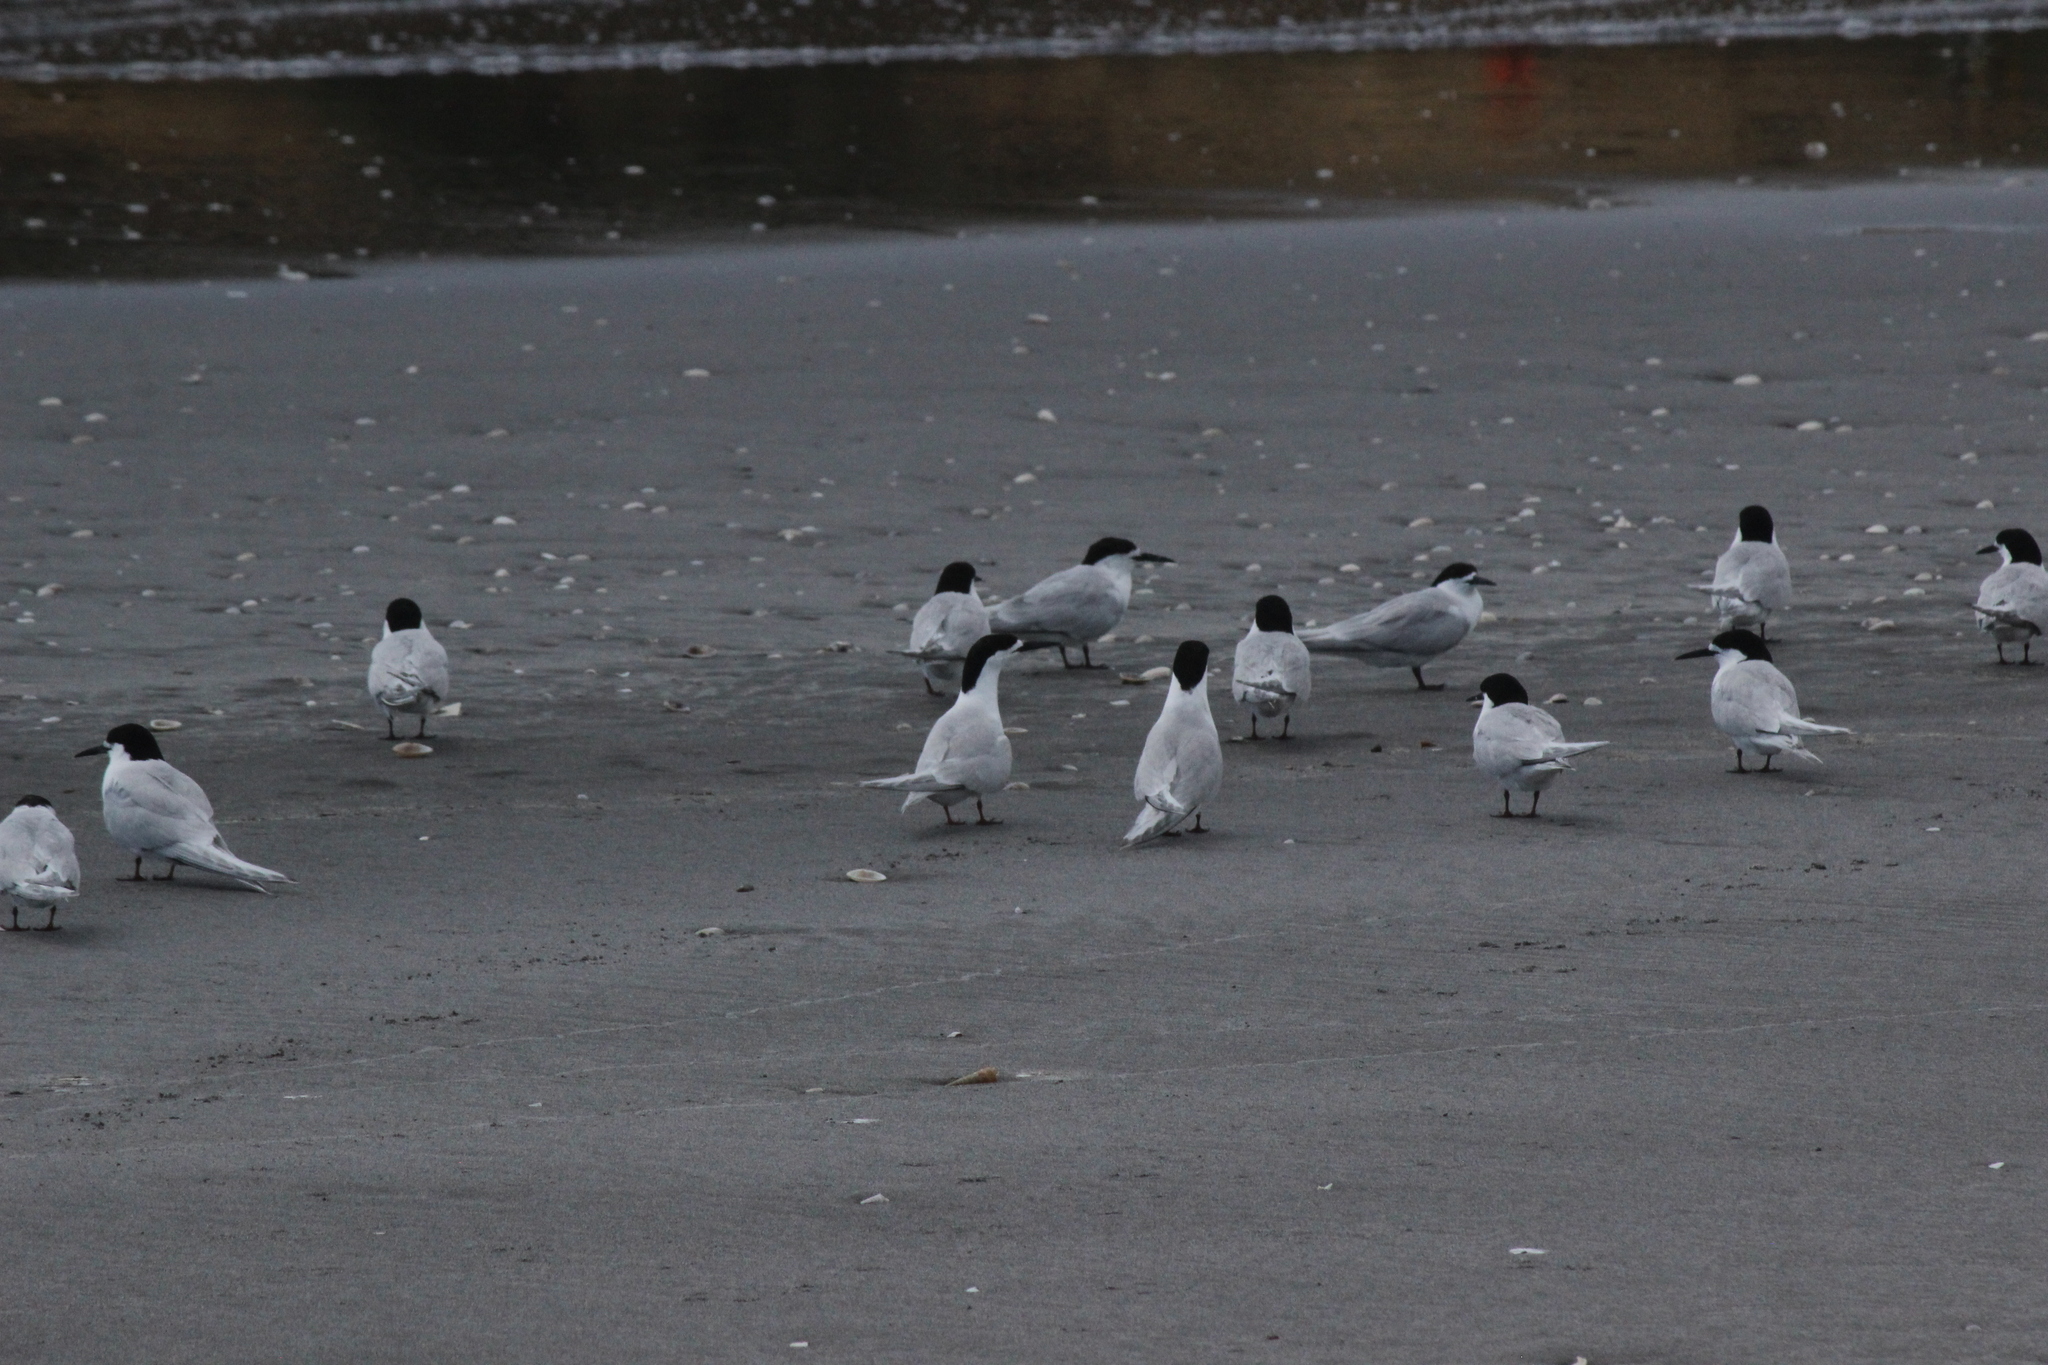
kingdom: Animalia
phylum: Chordata
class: Aves
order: Charadriiformes
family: Laridae
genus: Sterna
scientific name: Sterna striata
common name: White-fronted tern
